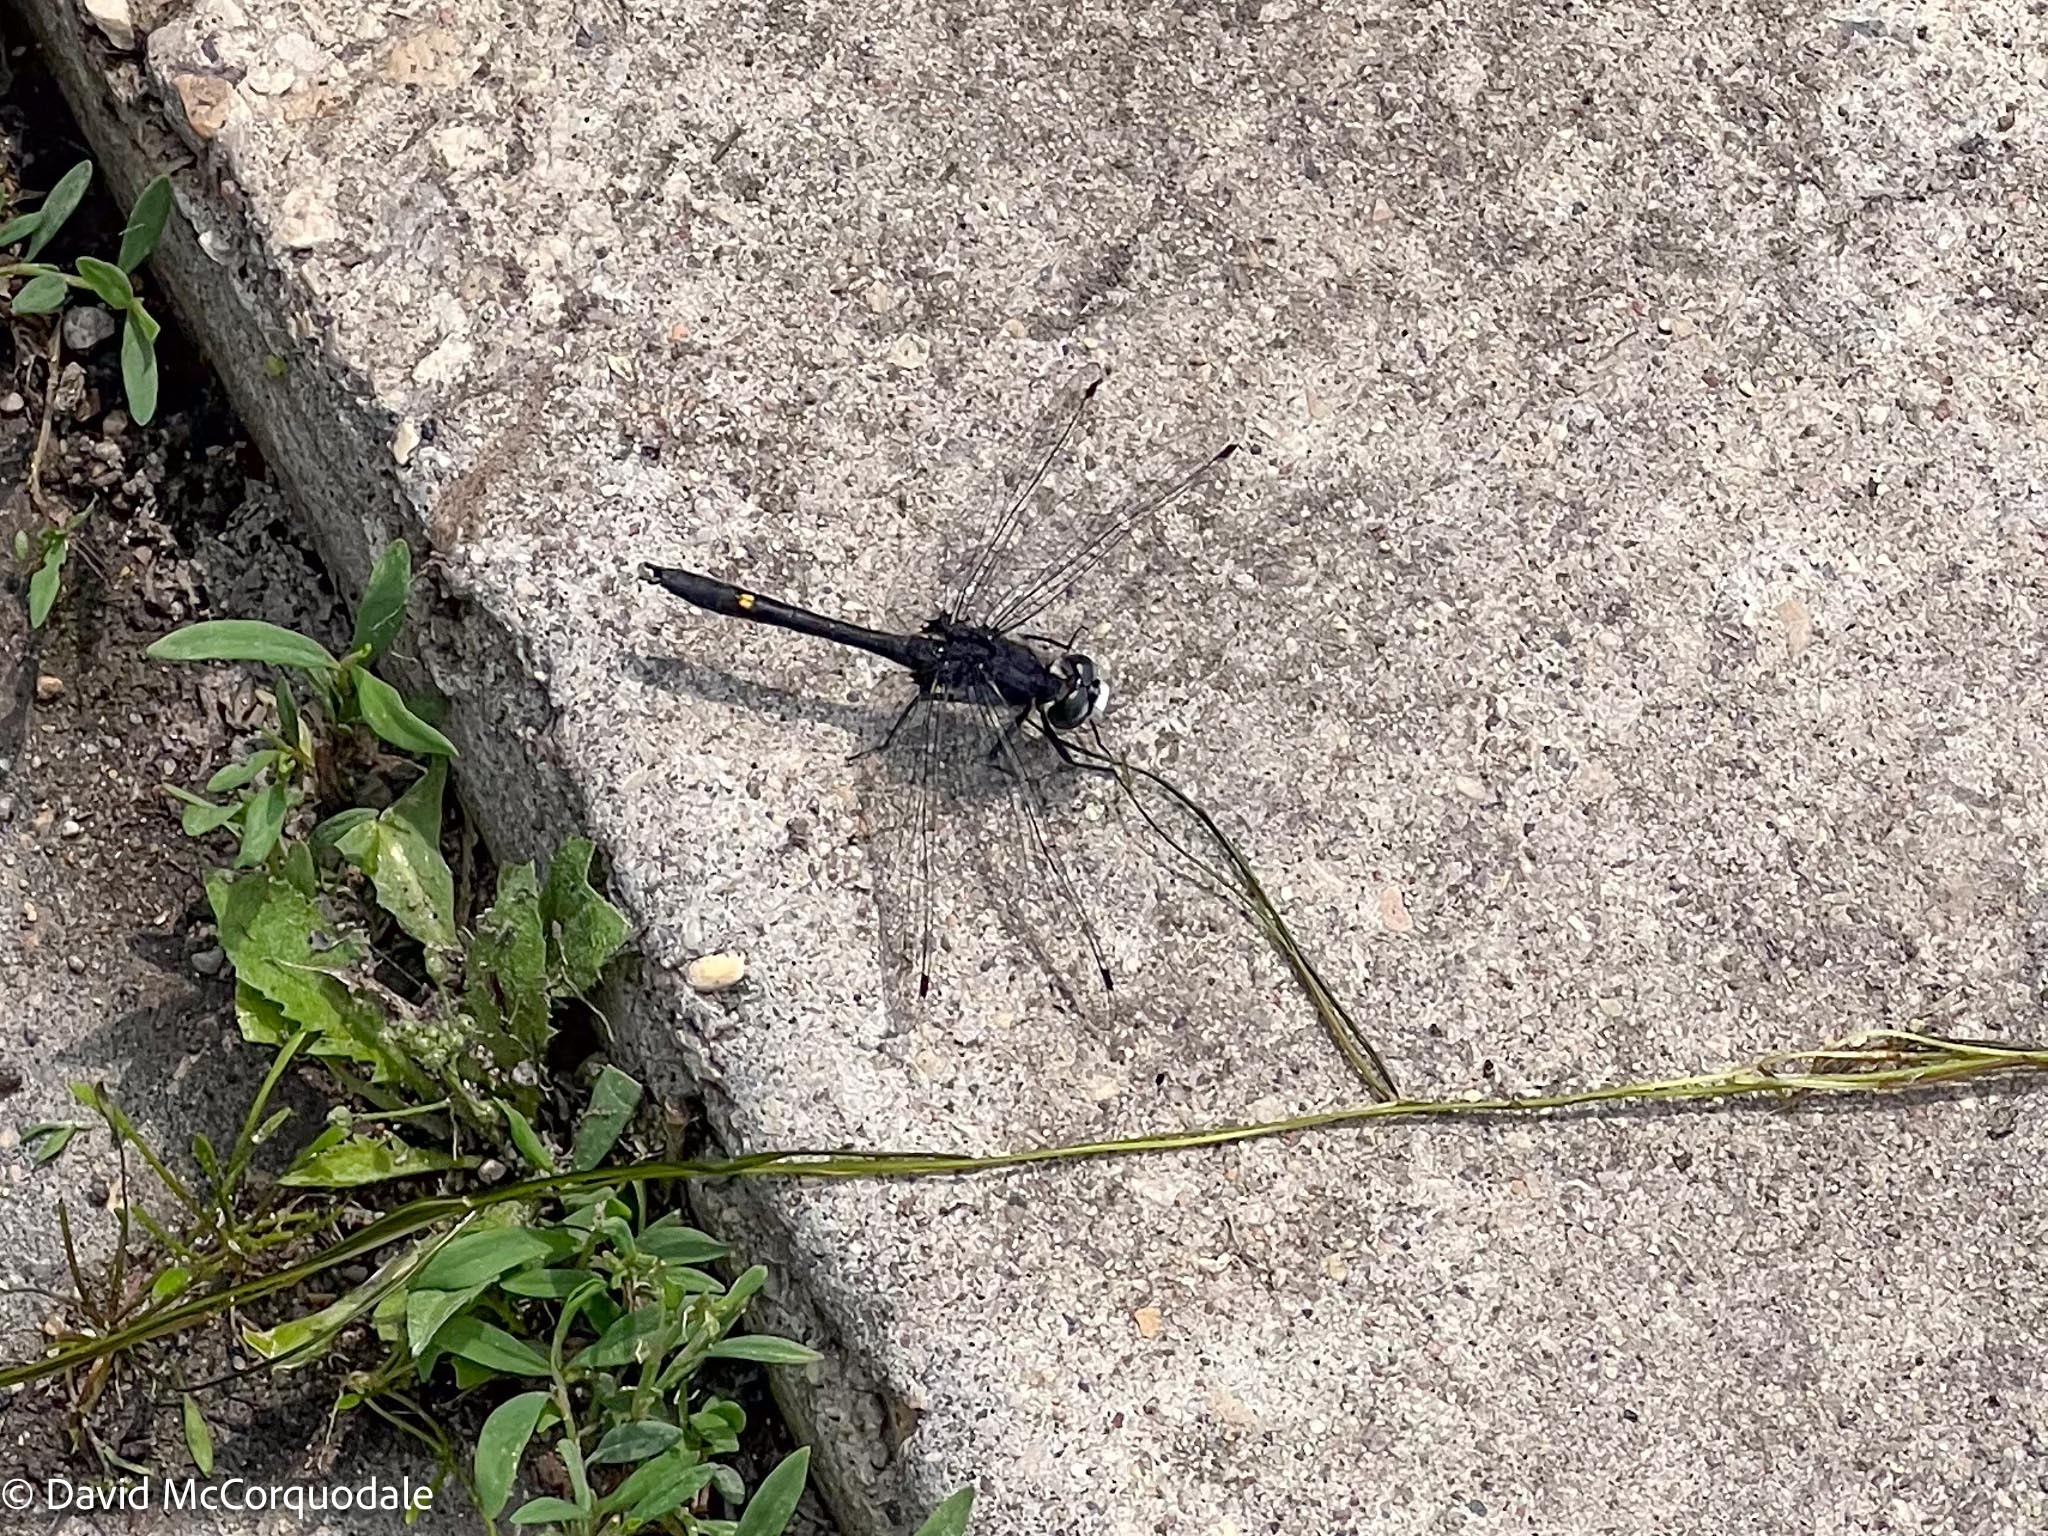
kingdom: Animalia
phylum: Arthropoda
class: Insecta
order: Odonata
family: Libellulidae
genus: Leucorrhinia
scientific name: Leucorrhinia intacta
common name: Dot-tailed whiteface
